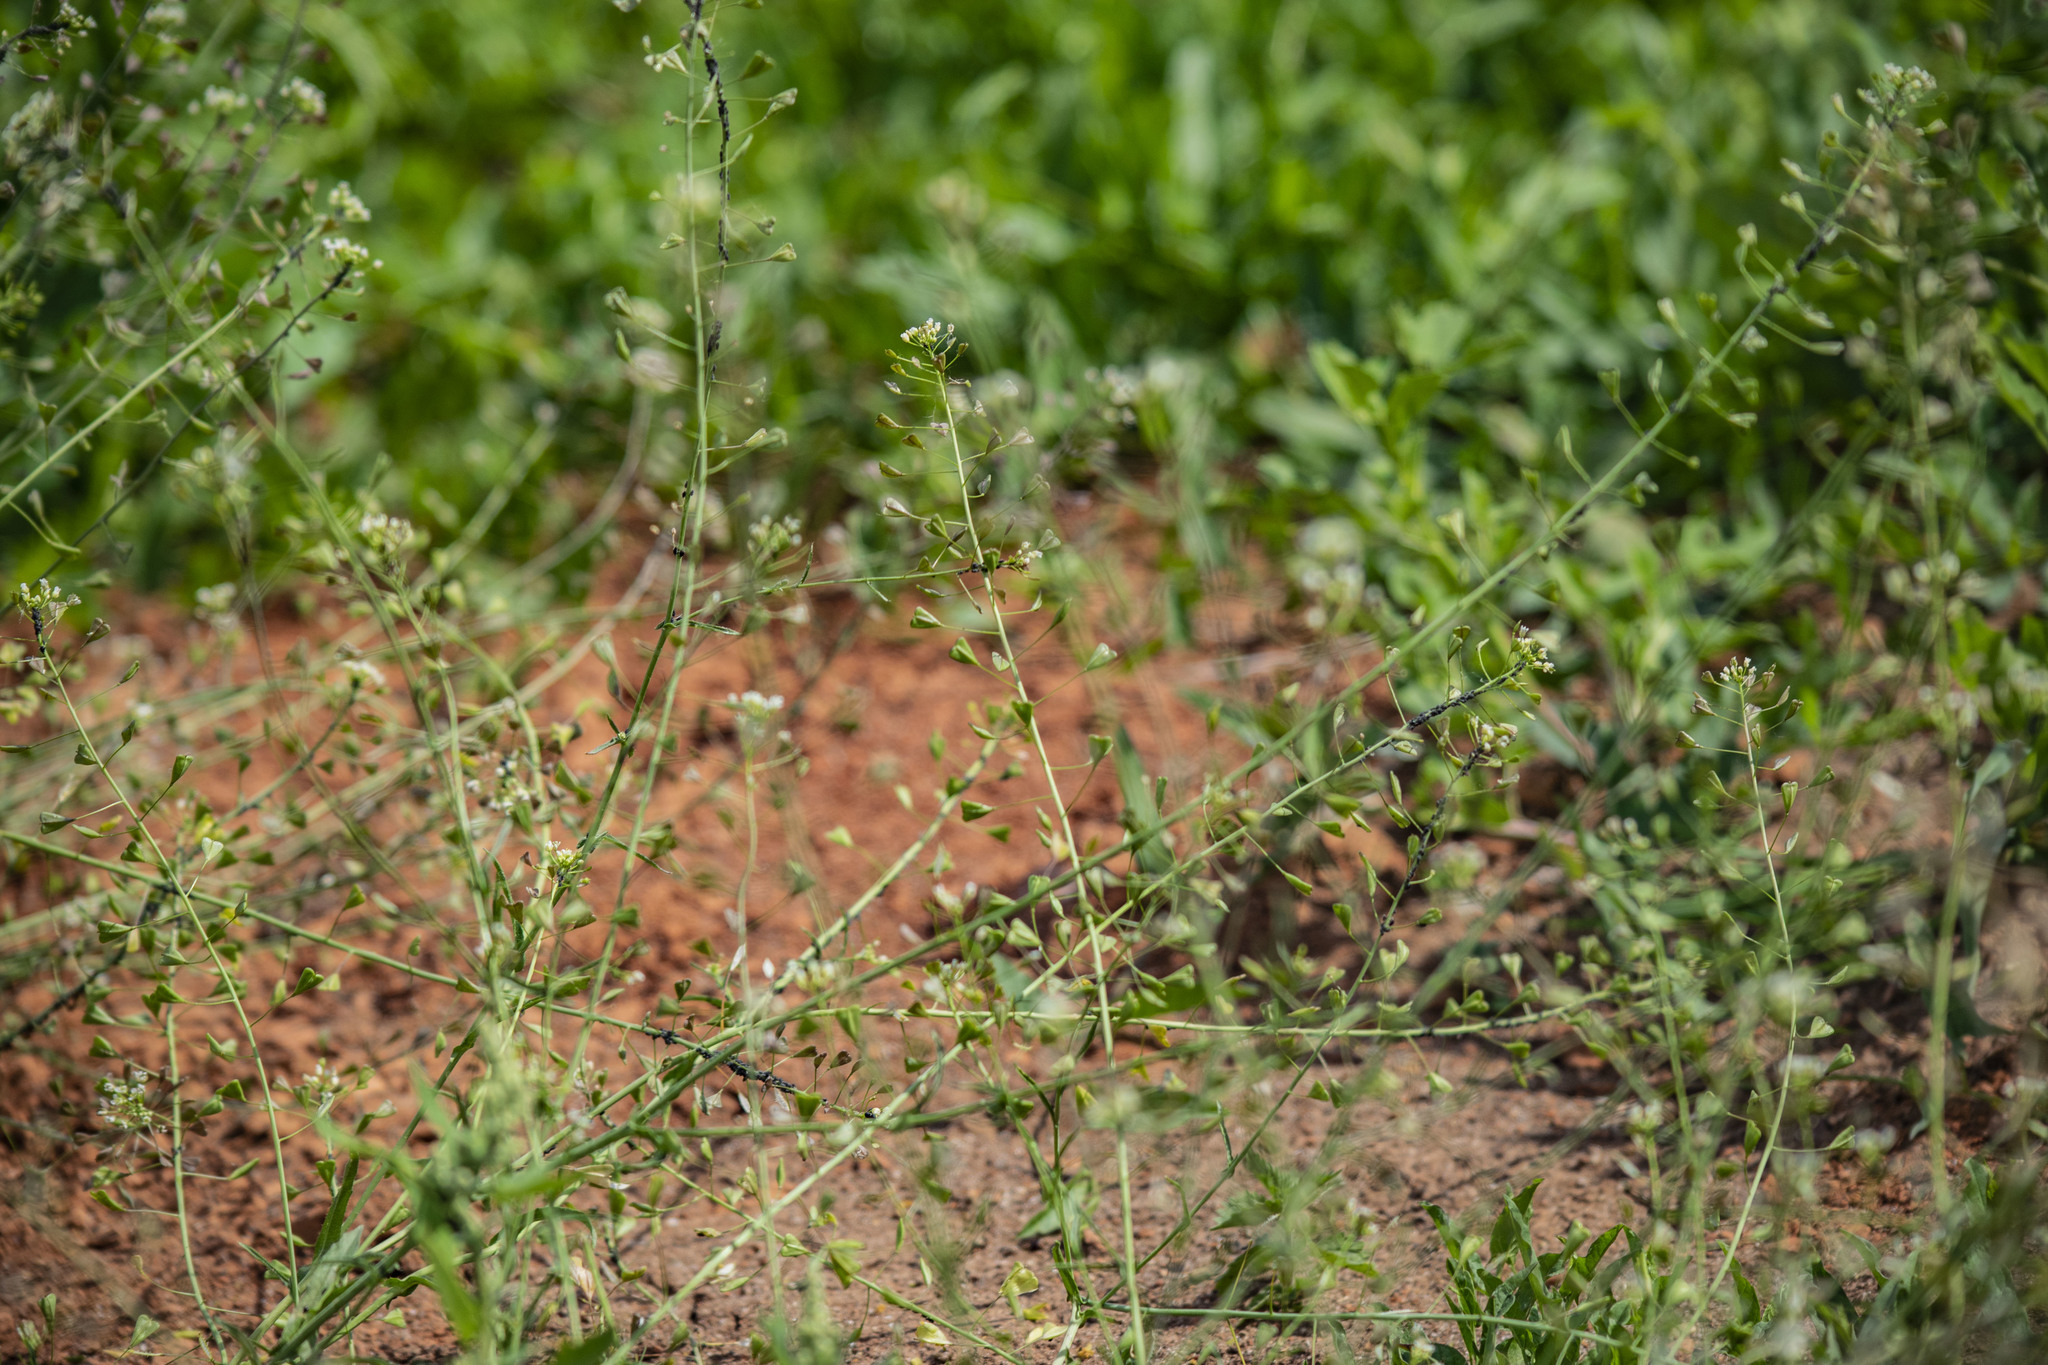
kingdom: Plantae
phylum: Tracheophyta
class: Magnoliopsida
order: Brassicales
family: Brassicaceae
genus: Capsella
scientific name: Capsella bursa-pastoris
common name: Shepherd's purse
